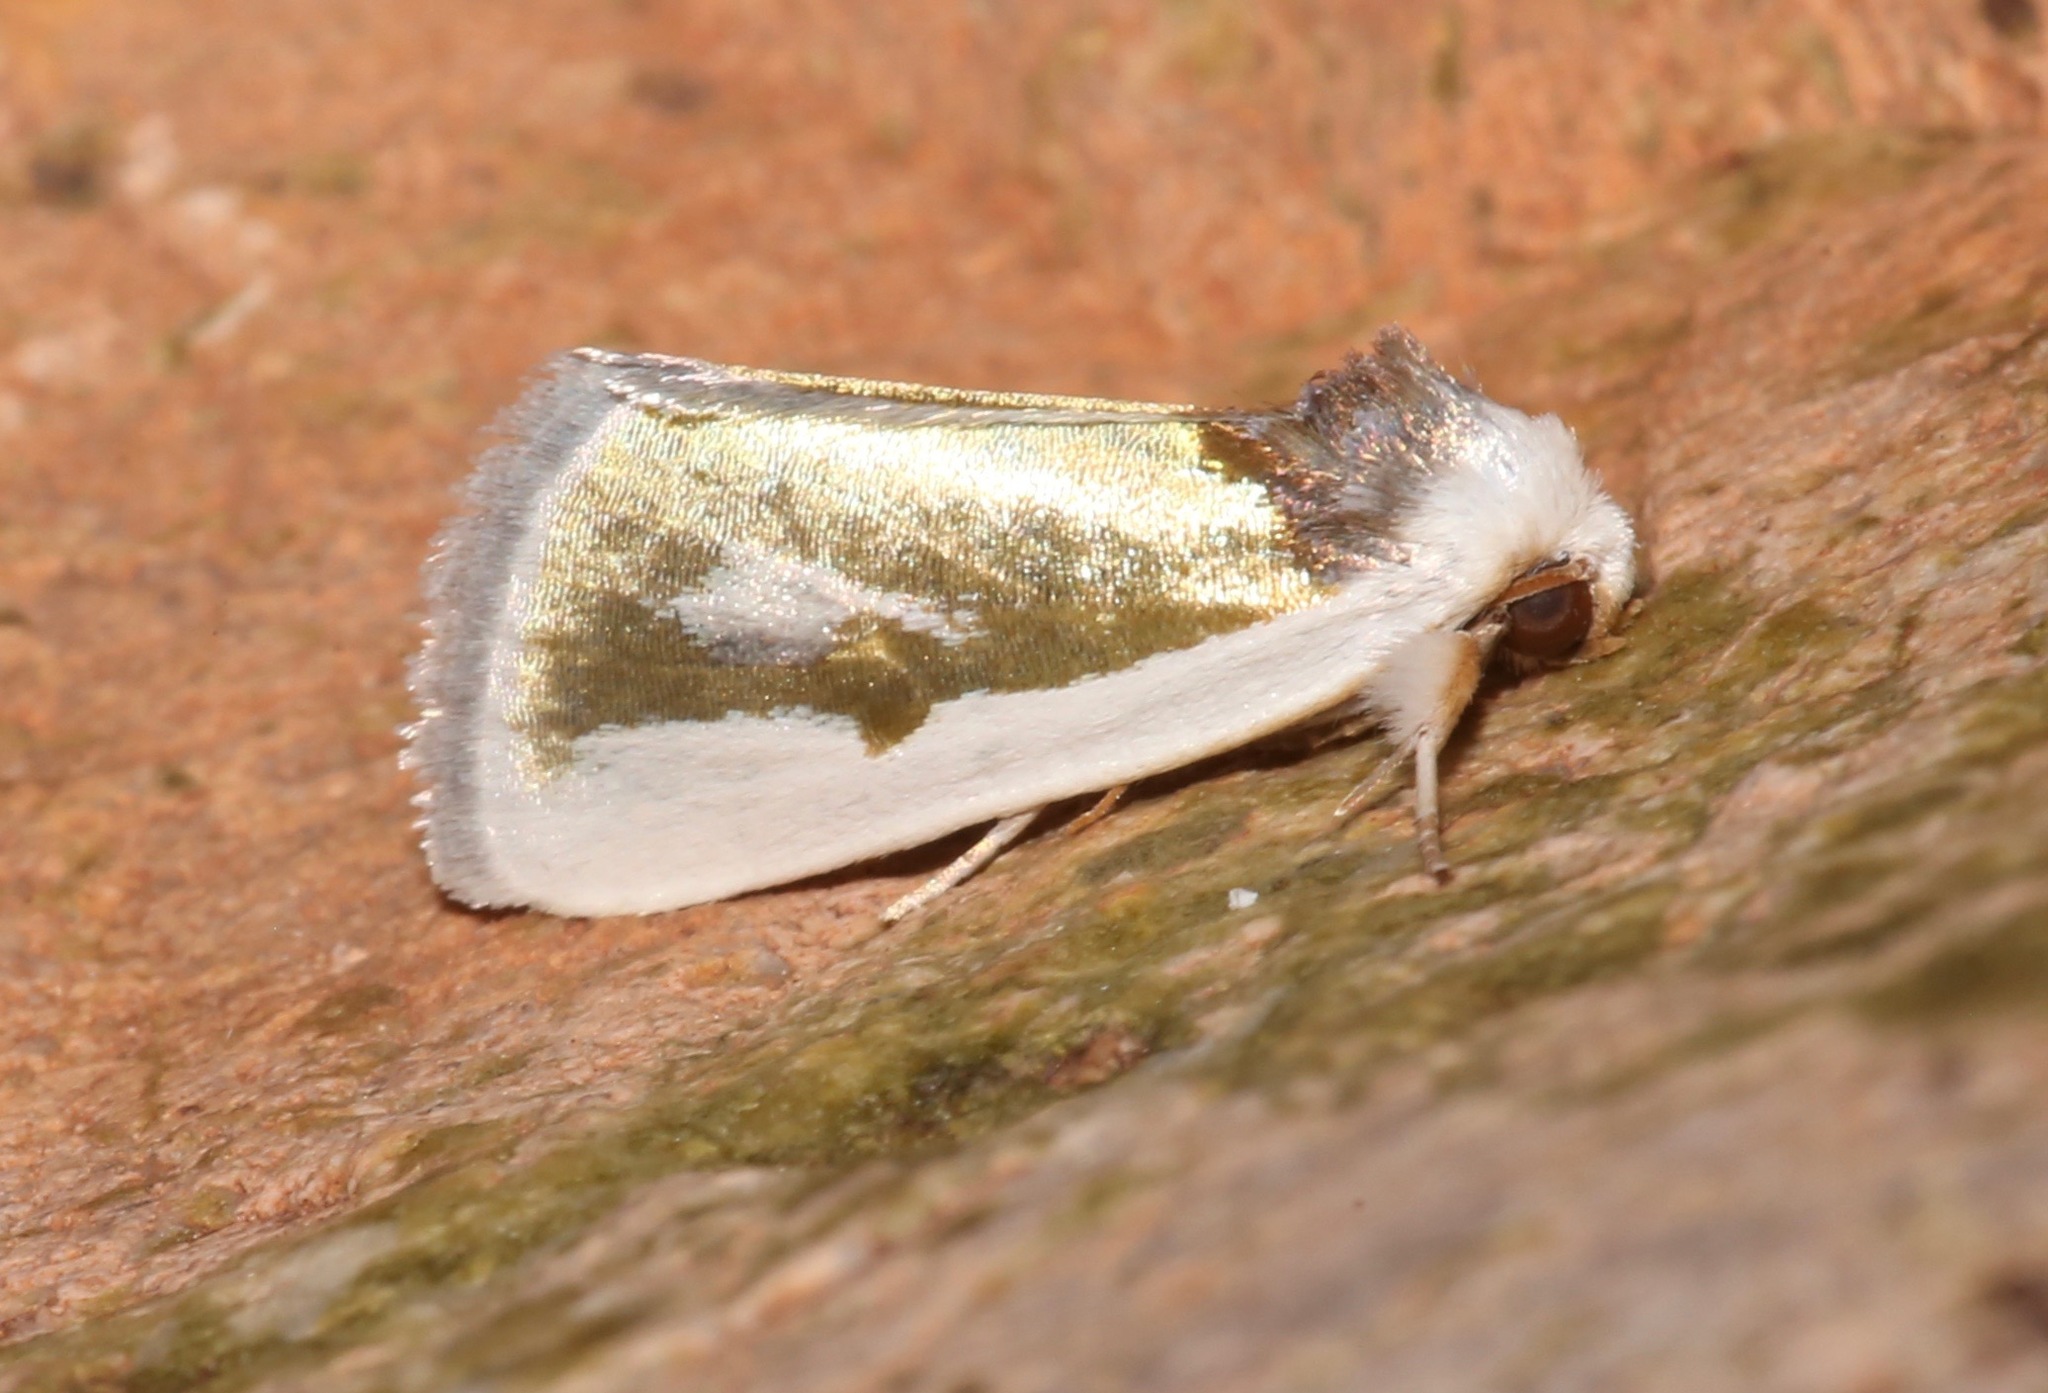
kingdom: Animalia
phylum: Arthropoda
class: Insecta
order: Lepidoptera
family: Noctuidae
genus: Neumoegenia
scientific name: Neumoegenia poetica
